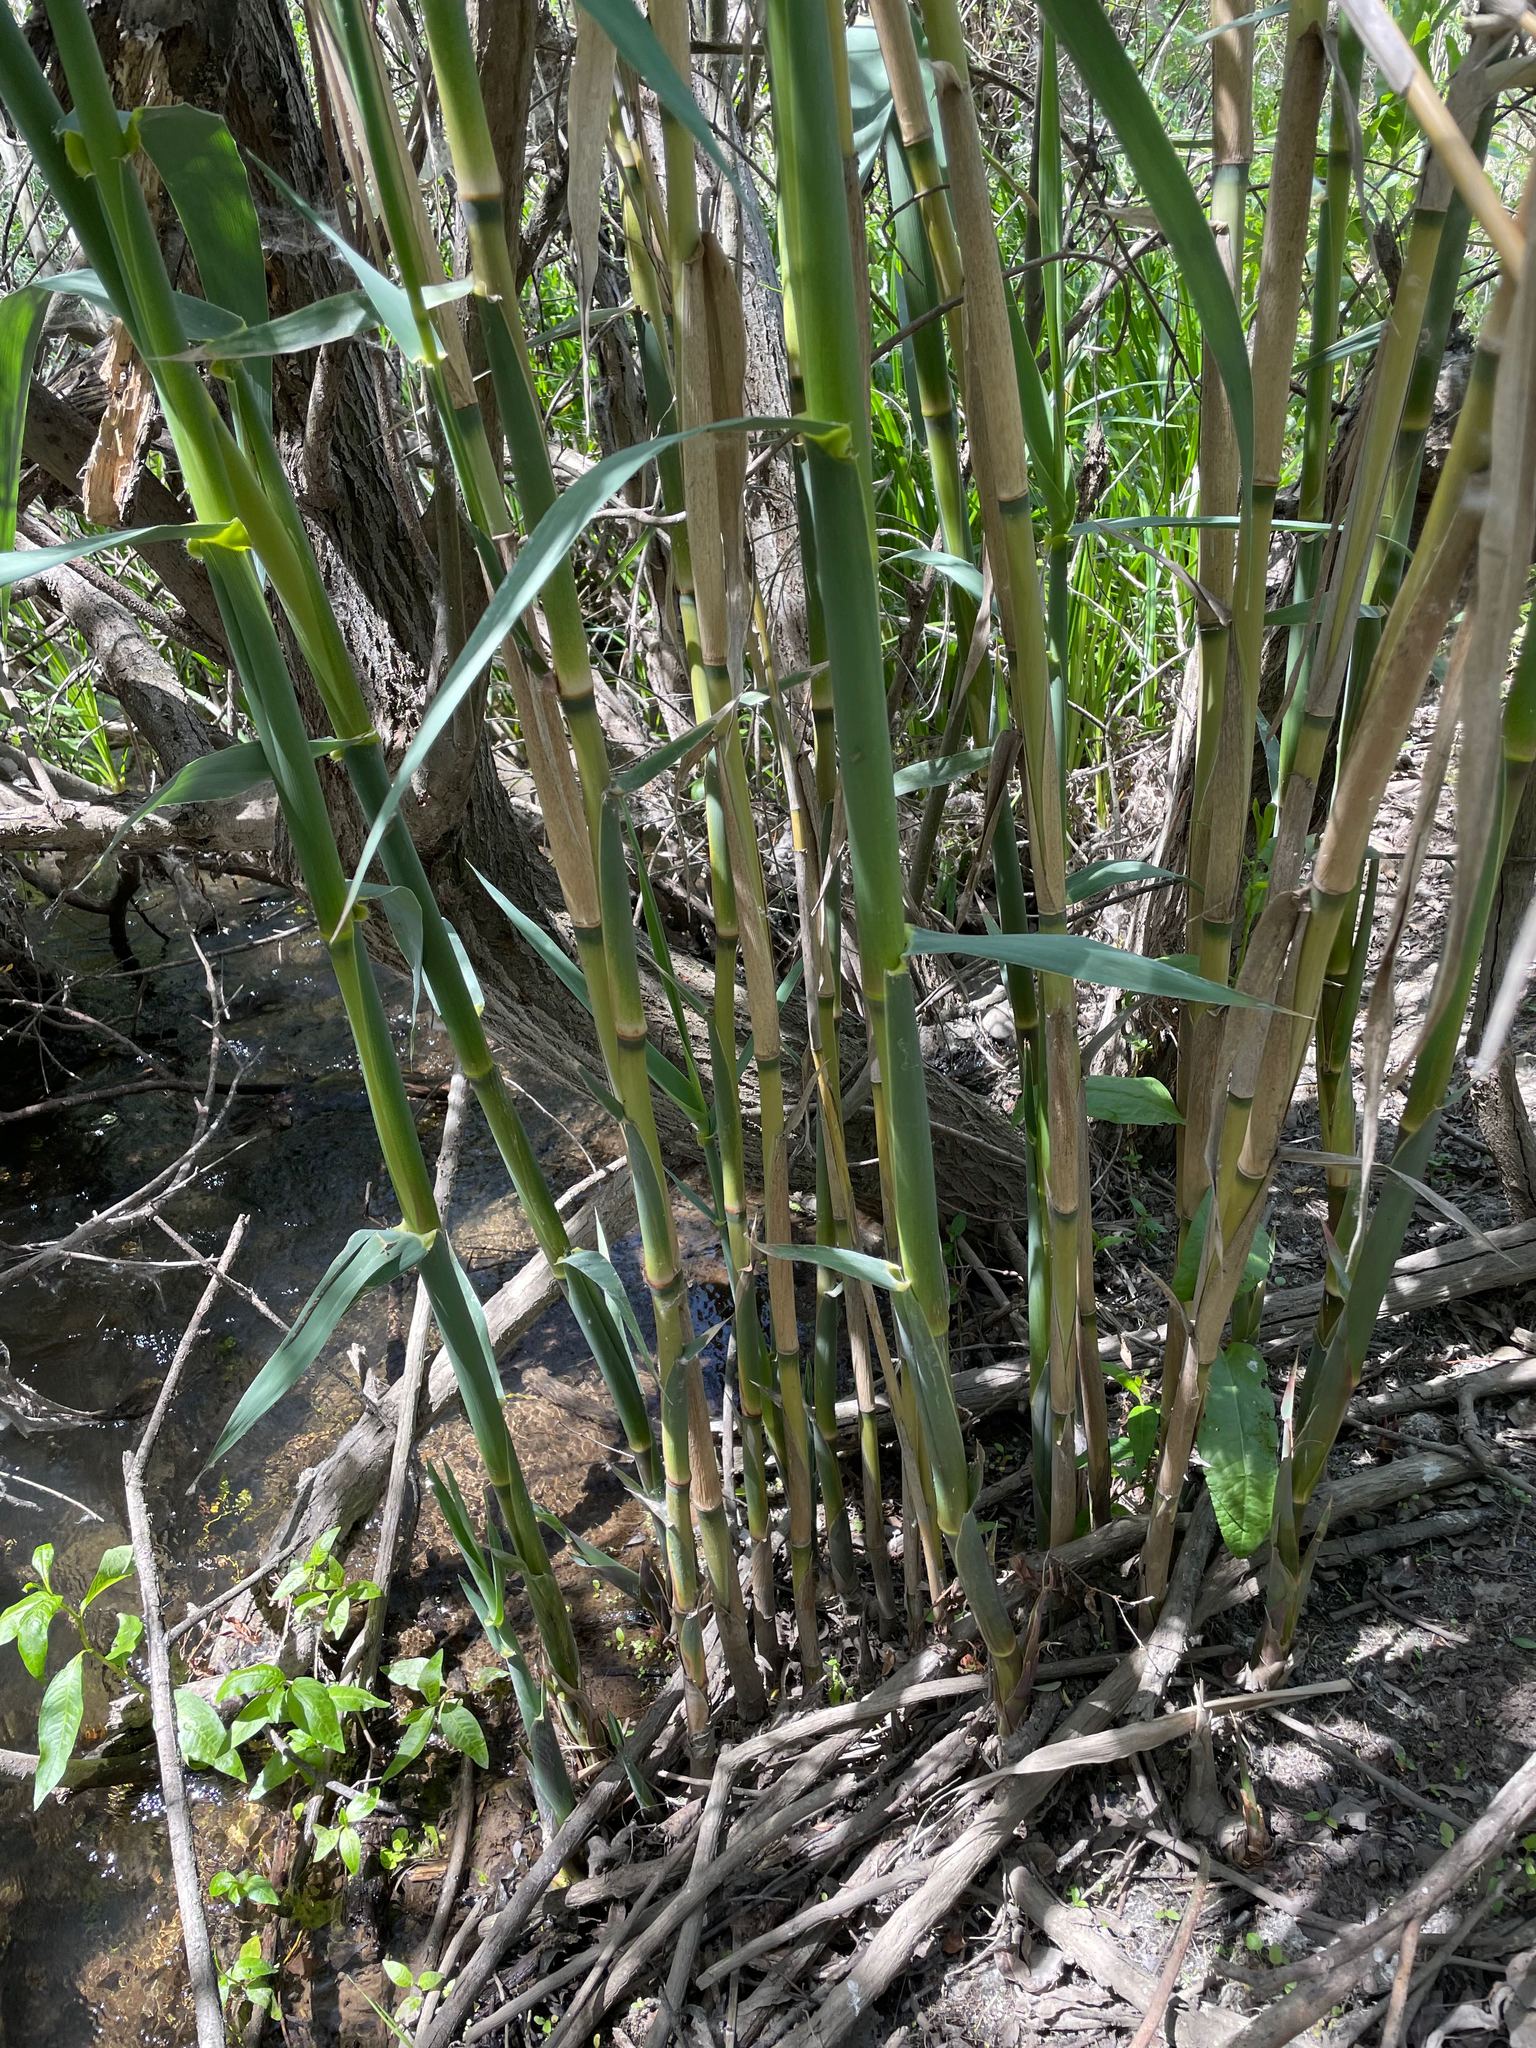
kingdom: Plantae
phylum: Tracheophyta
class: Liliopsida
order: Poales
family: Poaceae
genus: Arundo
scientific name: Arundo donax
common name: Giant reed
